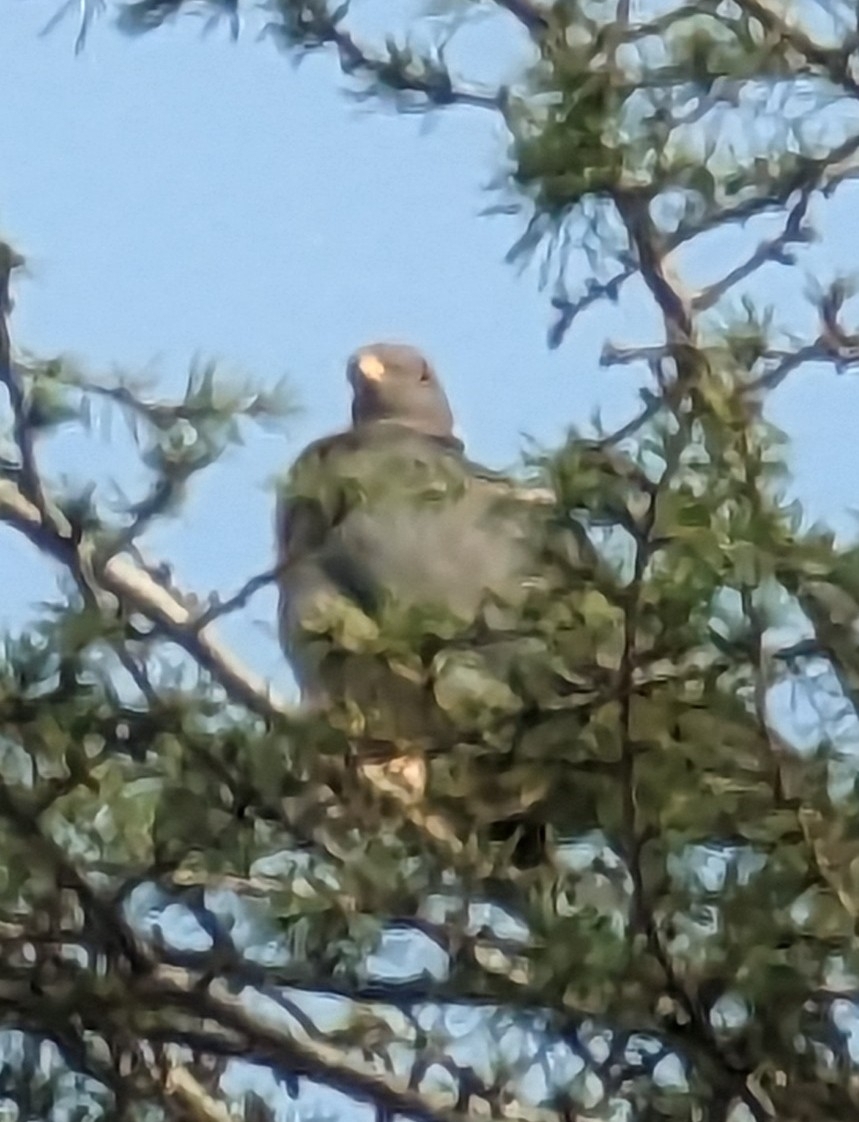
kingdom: Animalia
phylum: Chordata
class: Aves
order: Columbiformes
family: Columbidae
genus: Patagioenas
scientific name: Patagioenas fasciata
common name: Band-tailed pigeon
